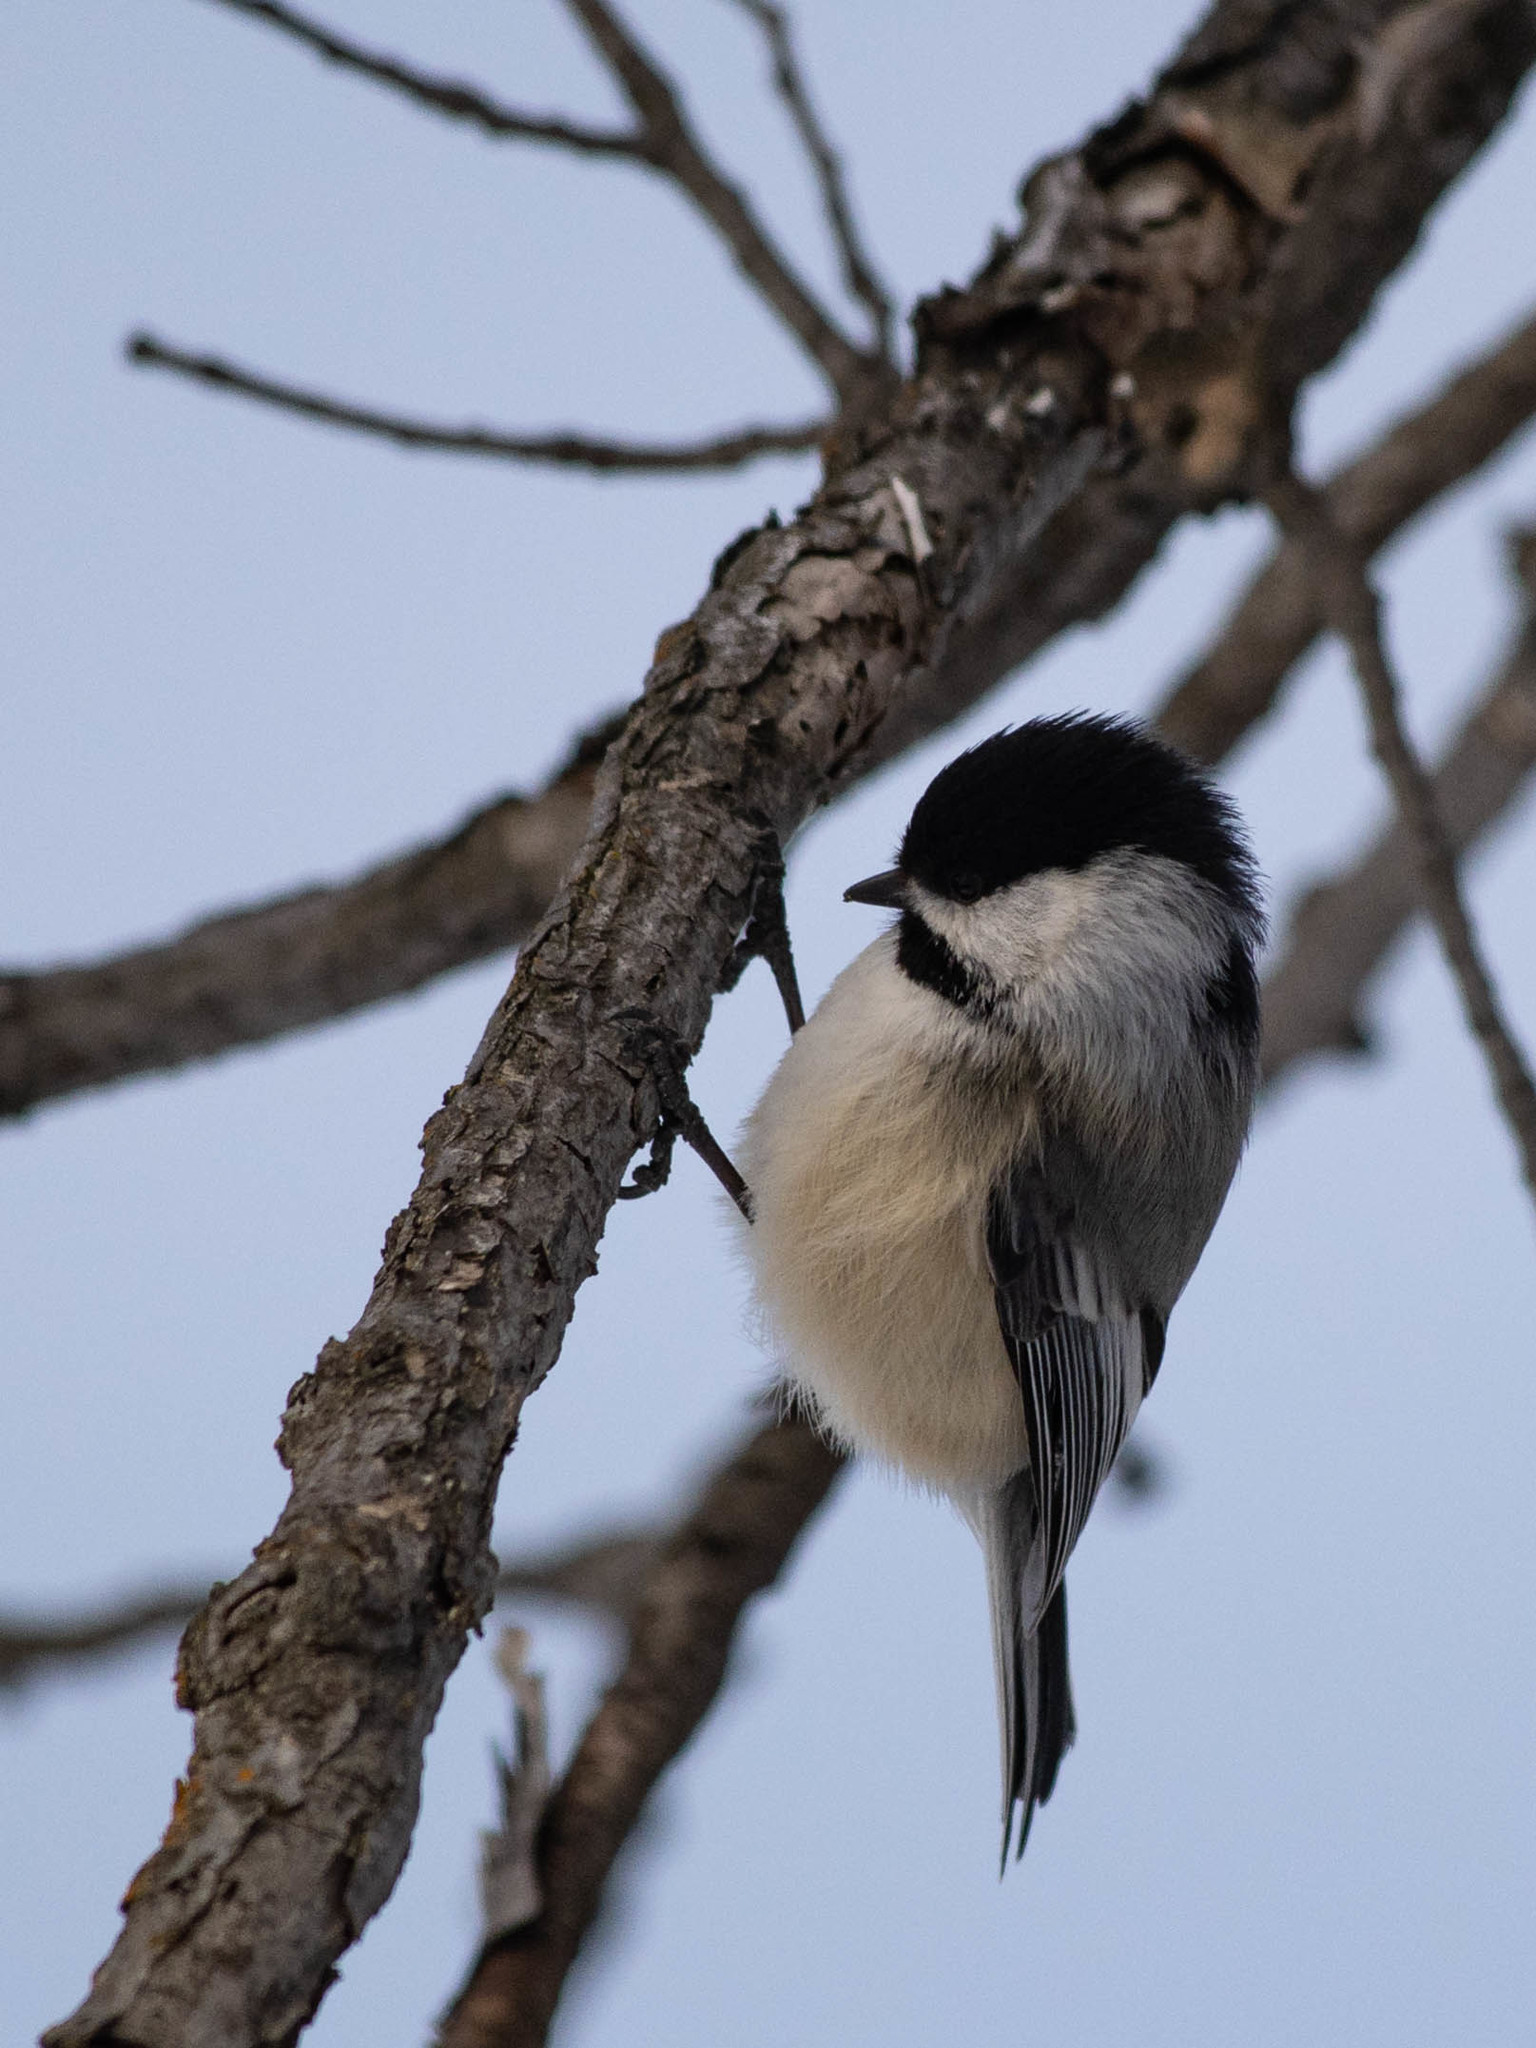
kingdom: Animalia
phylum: Chordata
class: Aves
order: Passeriformes
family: Paridae
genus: Poecile
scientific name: Poecile atricapillus
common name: Black-capped chickadee
